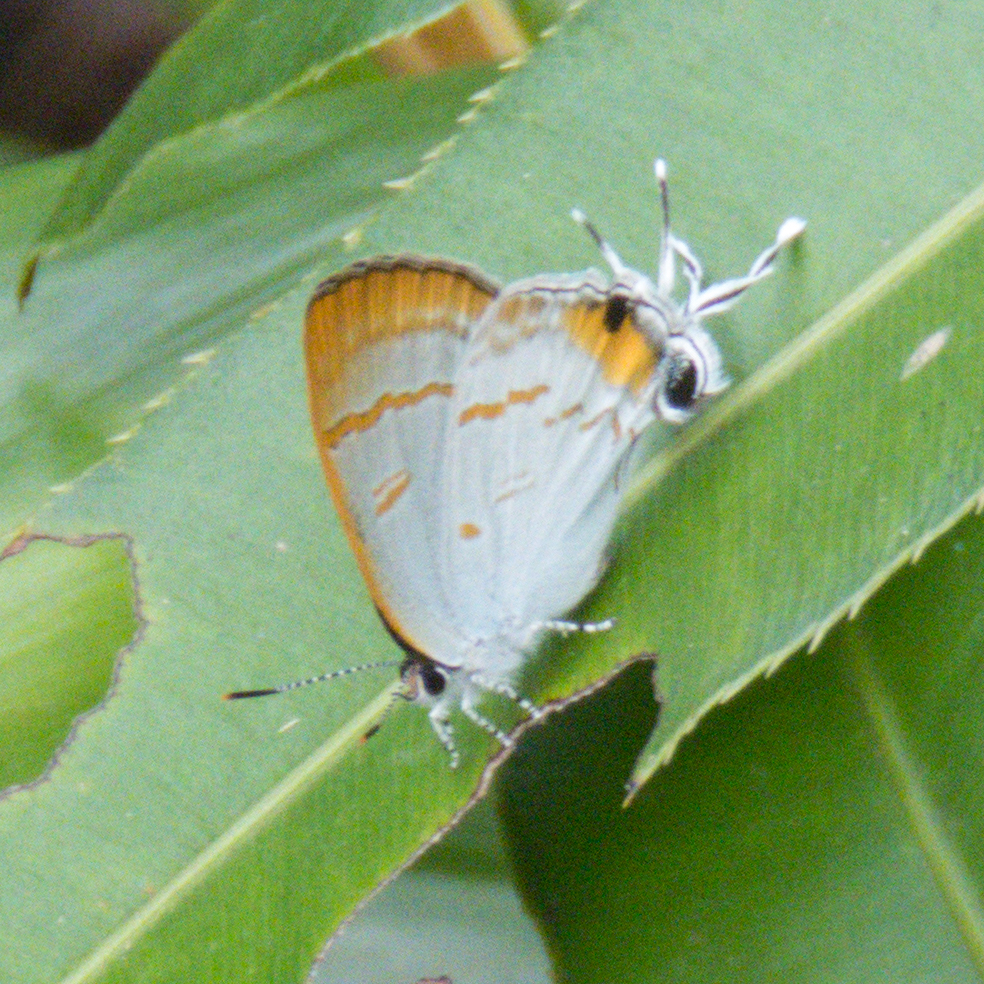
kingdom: Animalia
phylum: Arthropoda
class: Insecta
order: Lepidoptera
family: Lycaenidae
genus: Hypolycaena
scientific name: Hypolycaena thecloides
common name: Dark tit
